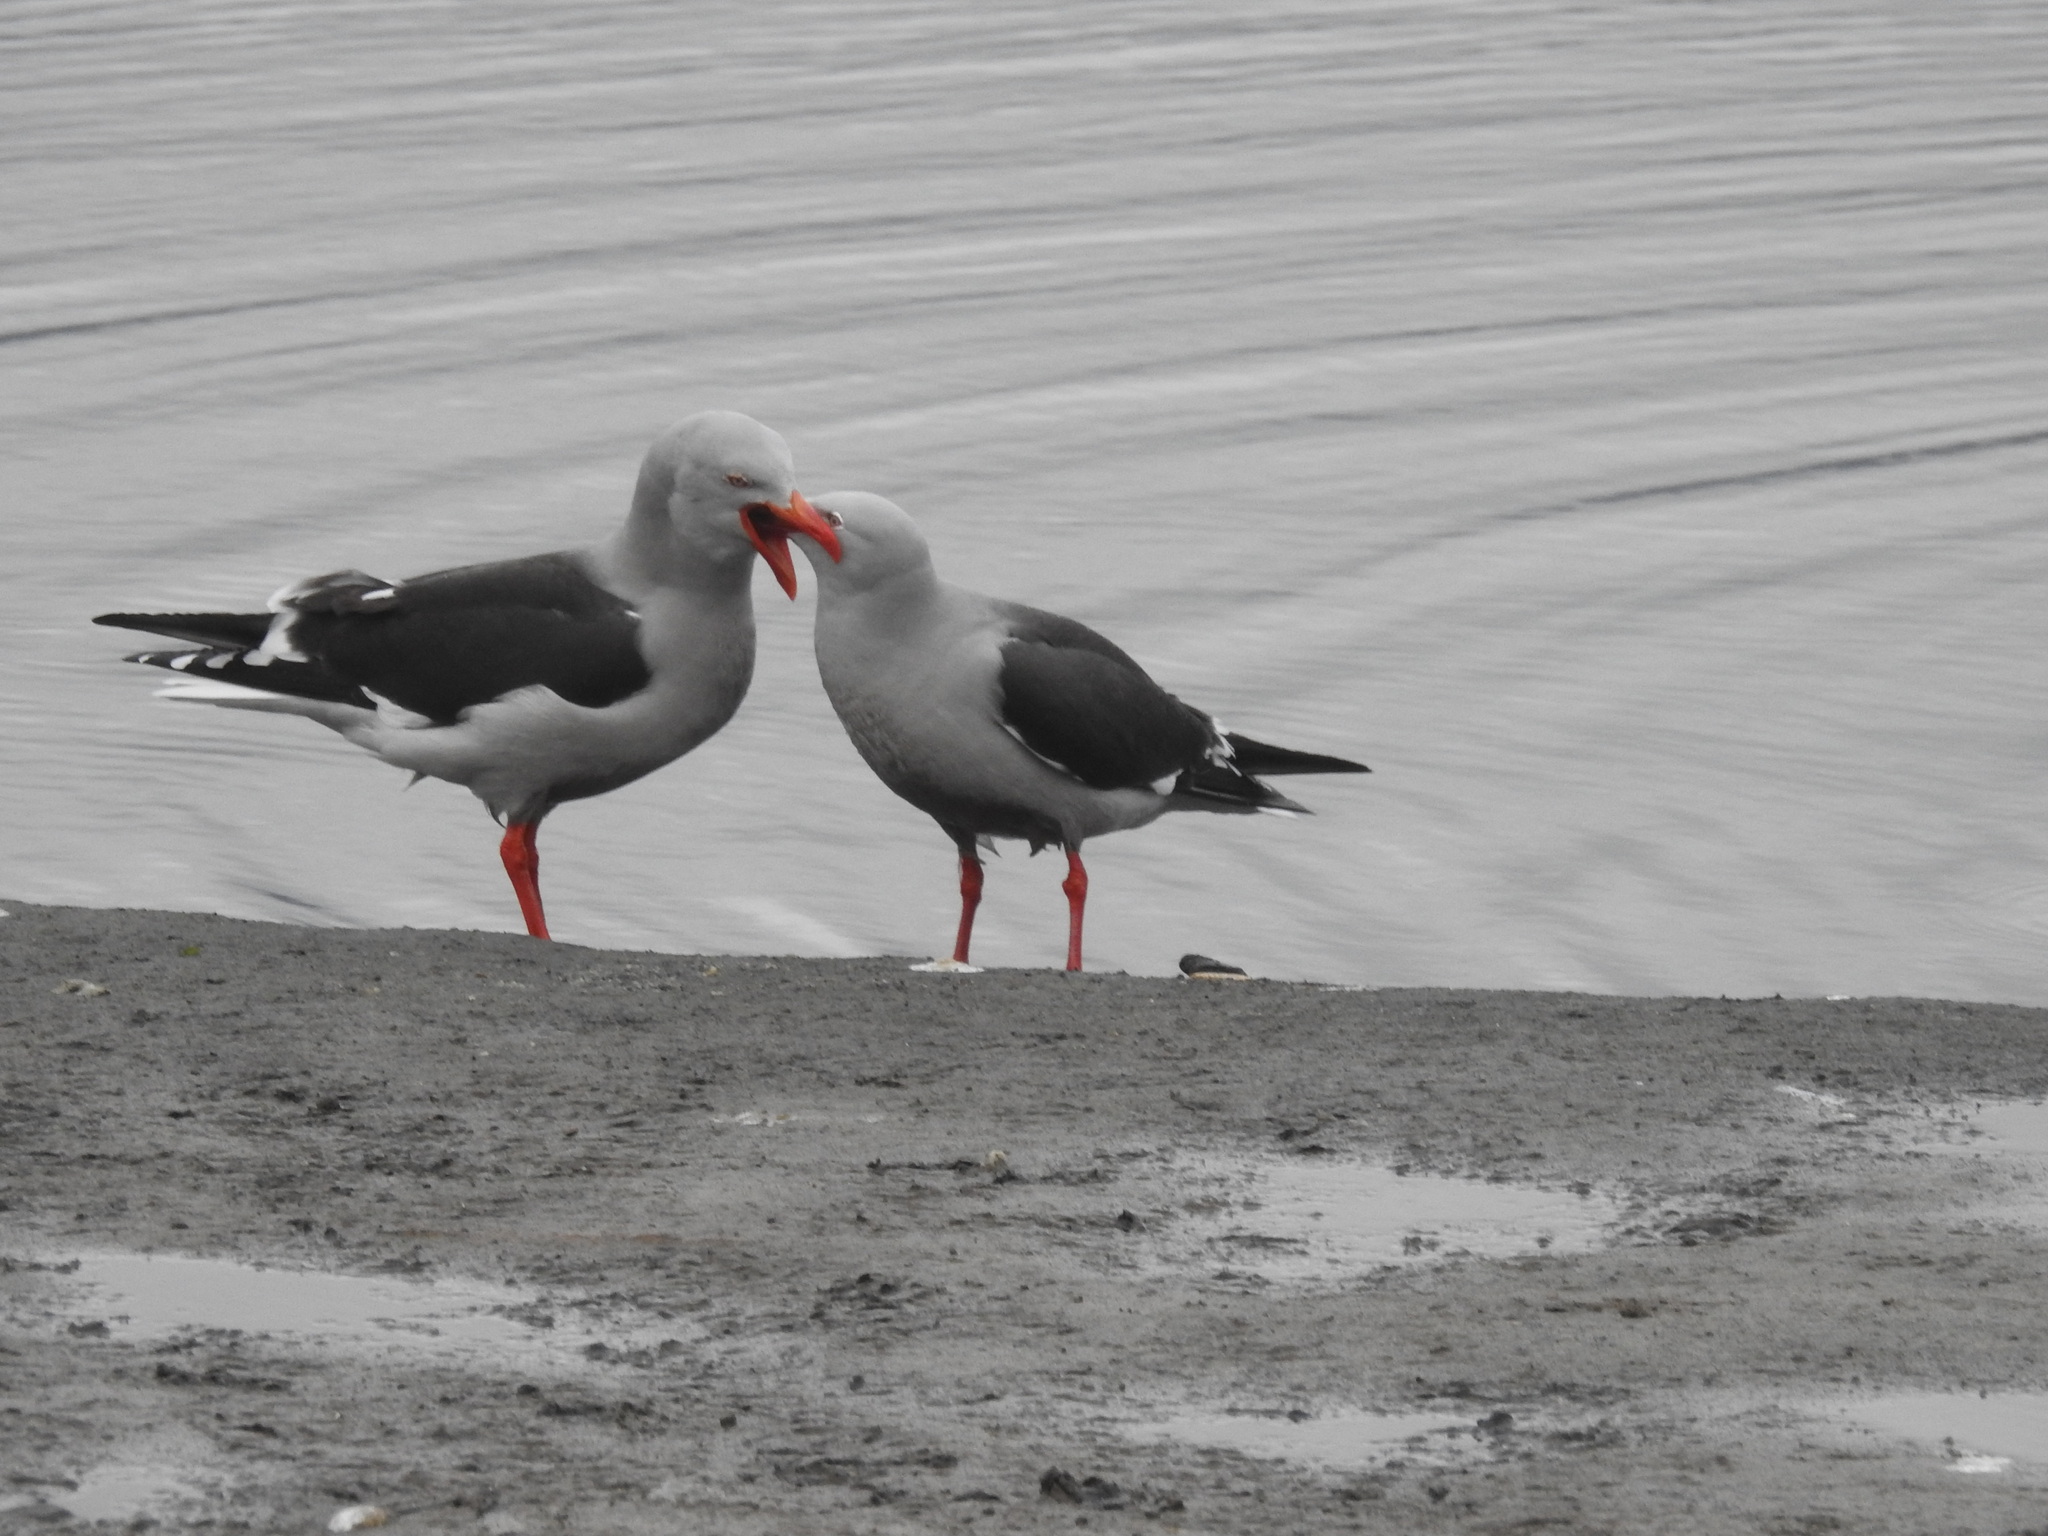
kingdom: Animalia
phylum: Chordata
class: Aves
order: Charadriiformes
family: Laridae
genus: Leucophaeus
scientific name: Leucophaeus scoresbii
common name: Dolphin gull
